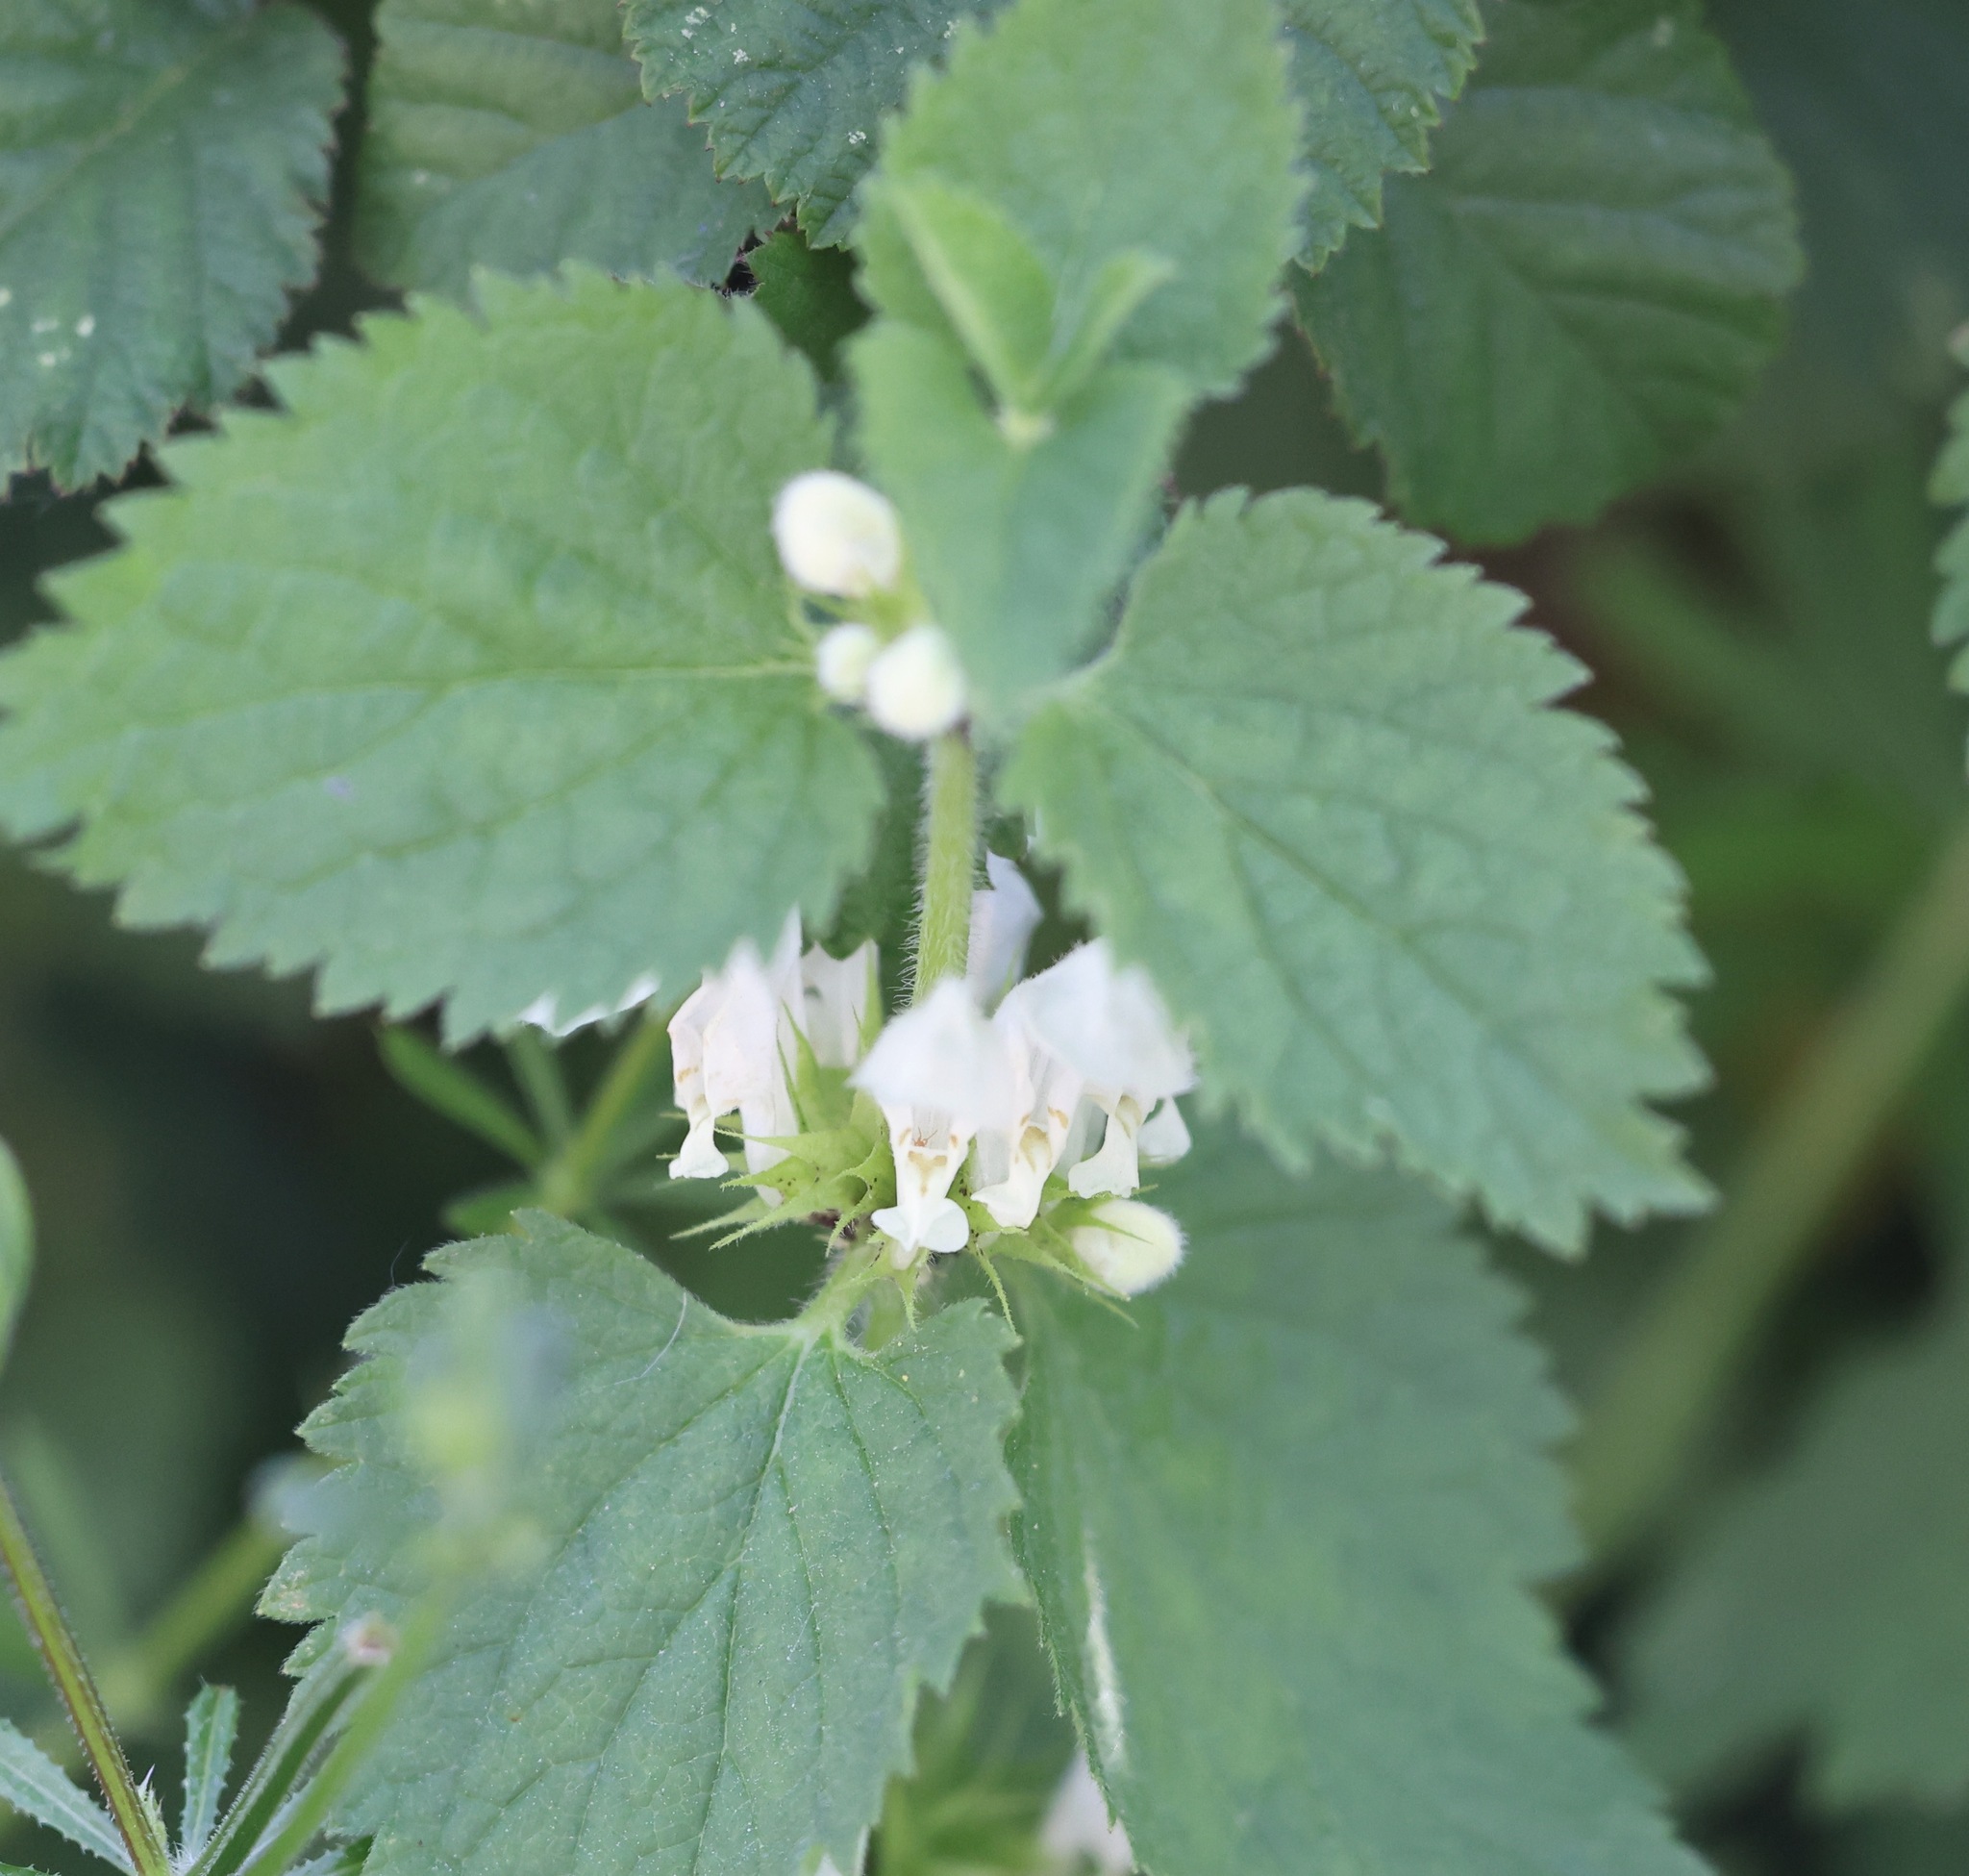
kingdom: Plantae
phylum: Tracheophyta
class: Magnoliopsida
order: Lamiales
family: Lamiaceae
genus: Lamium
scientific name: Lamium album
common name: White dead-nettle
